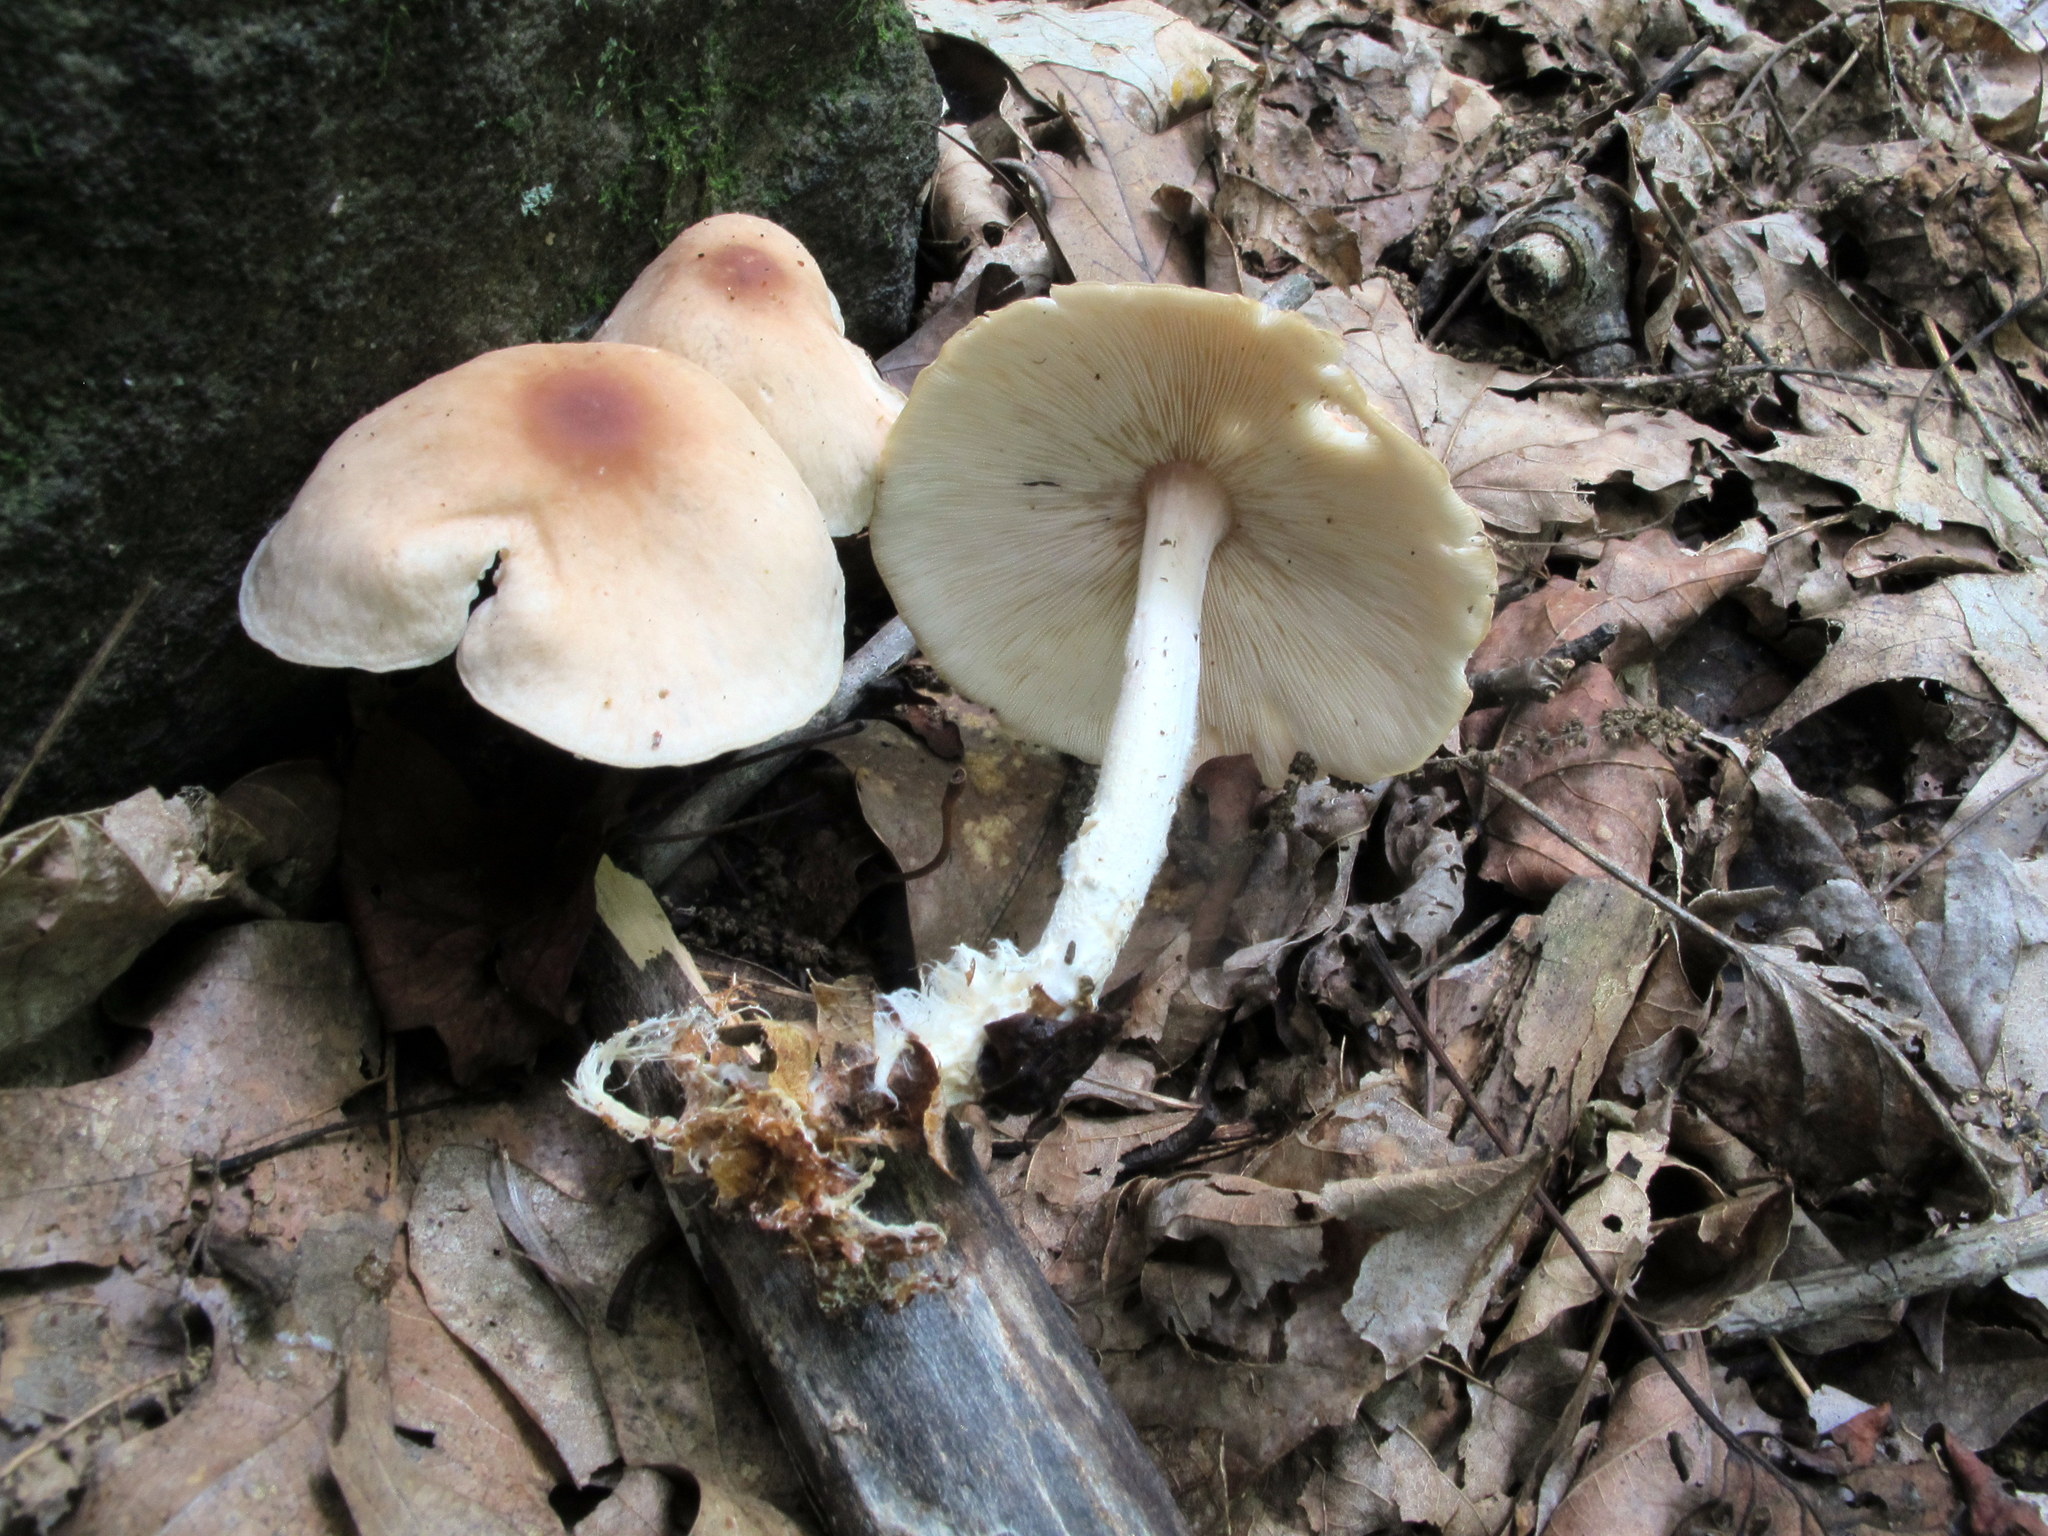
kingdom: Fungi
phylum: Basidiomycota
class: Agaricomycetes
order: Agaricales
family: Omphalotaceae
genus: Gymnopus
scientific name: Gymnopus polyphyllus
